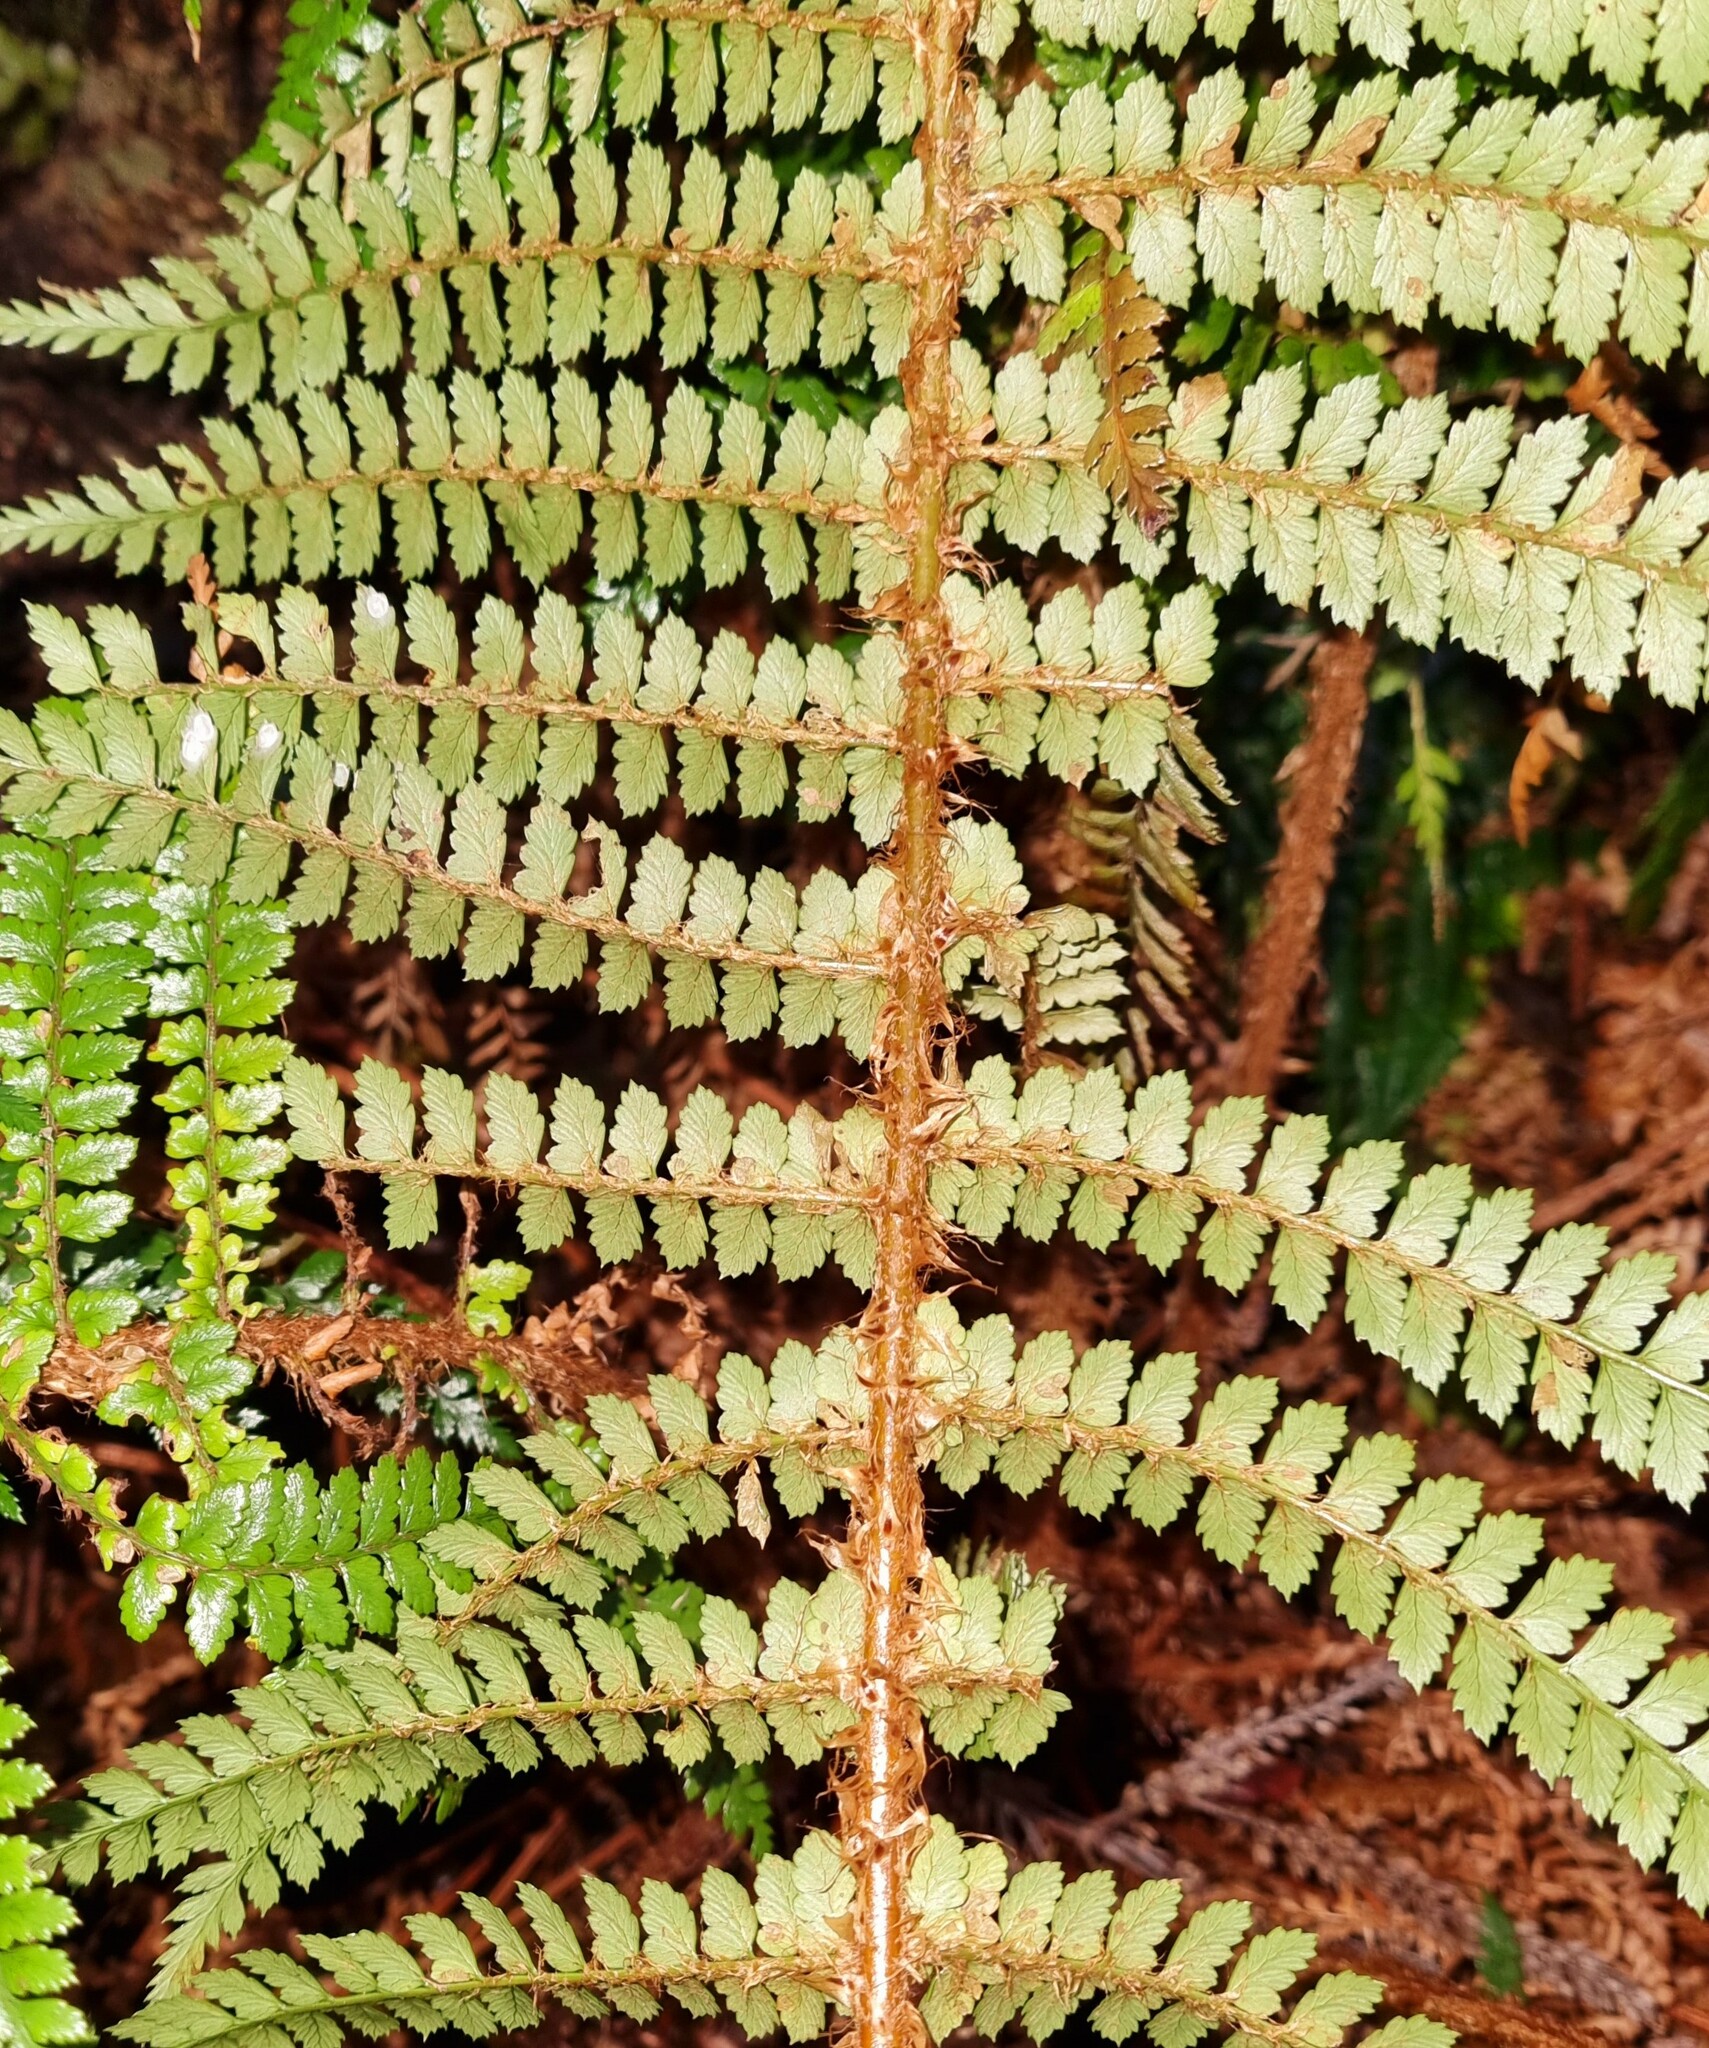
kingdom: Plantae
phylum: Tracheophyta
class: Polypodiopsida
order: Polypodiales
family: Dryopteridaceae
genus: Polystichum
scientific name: Polystichum vestitum
